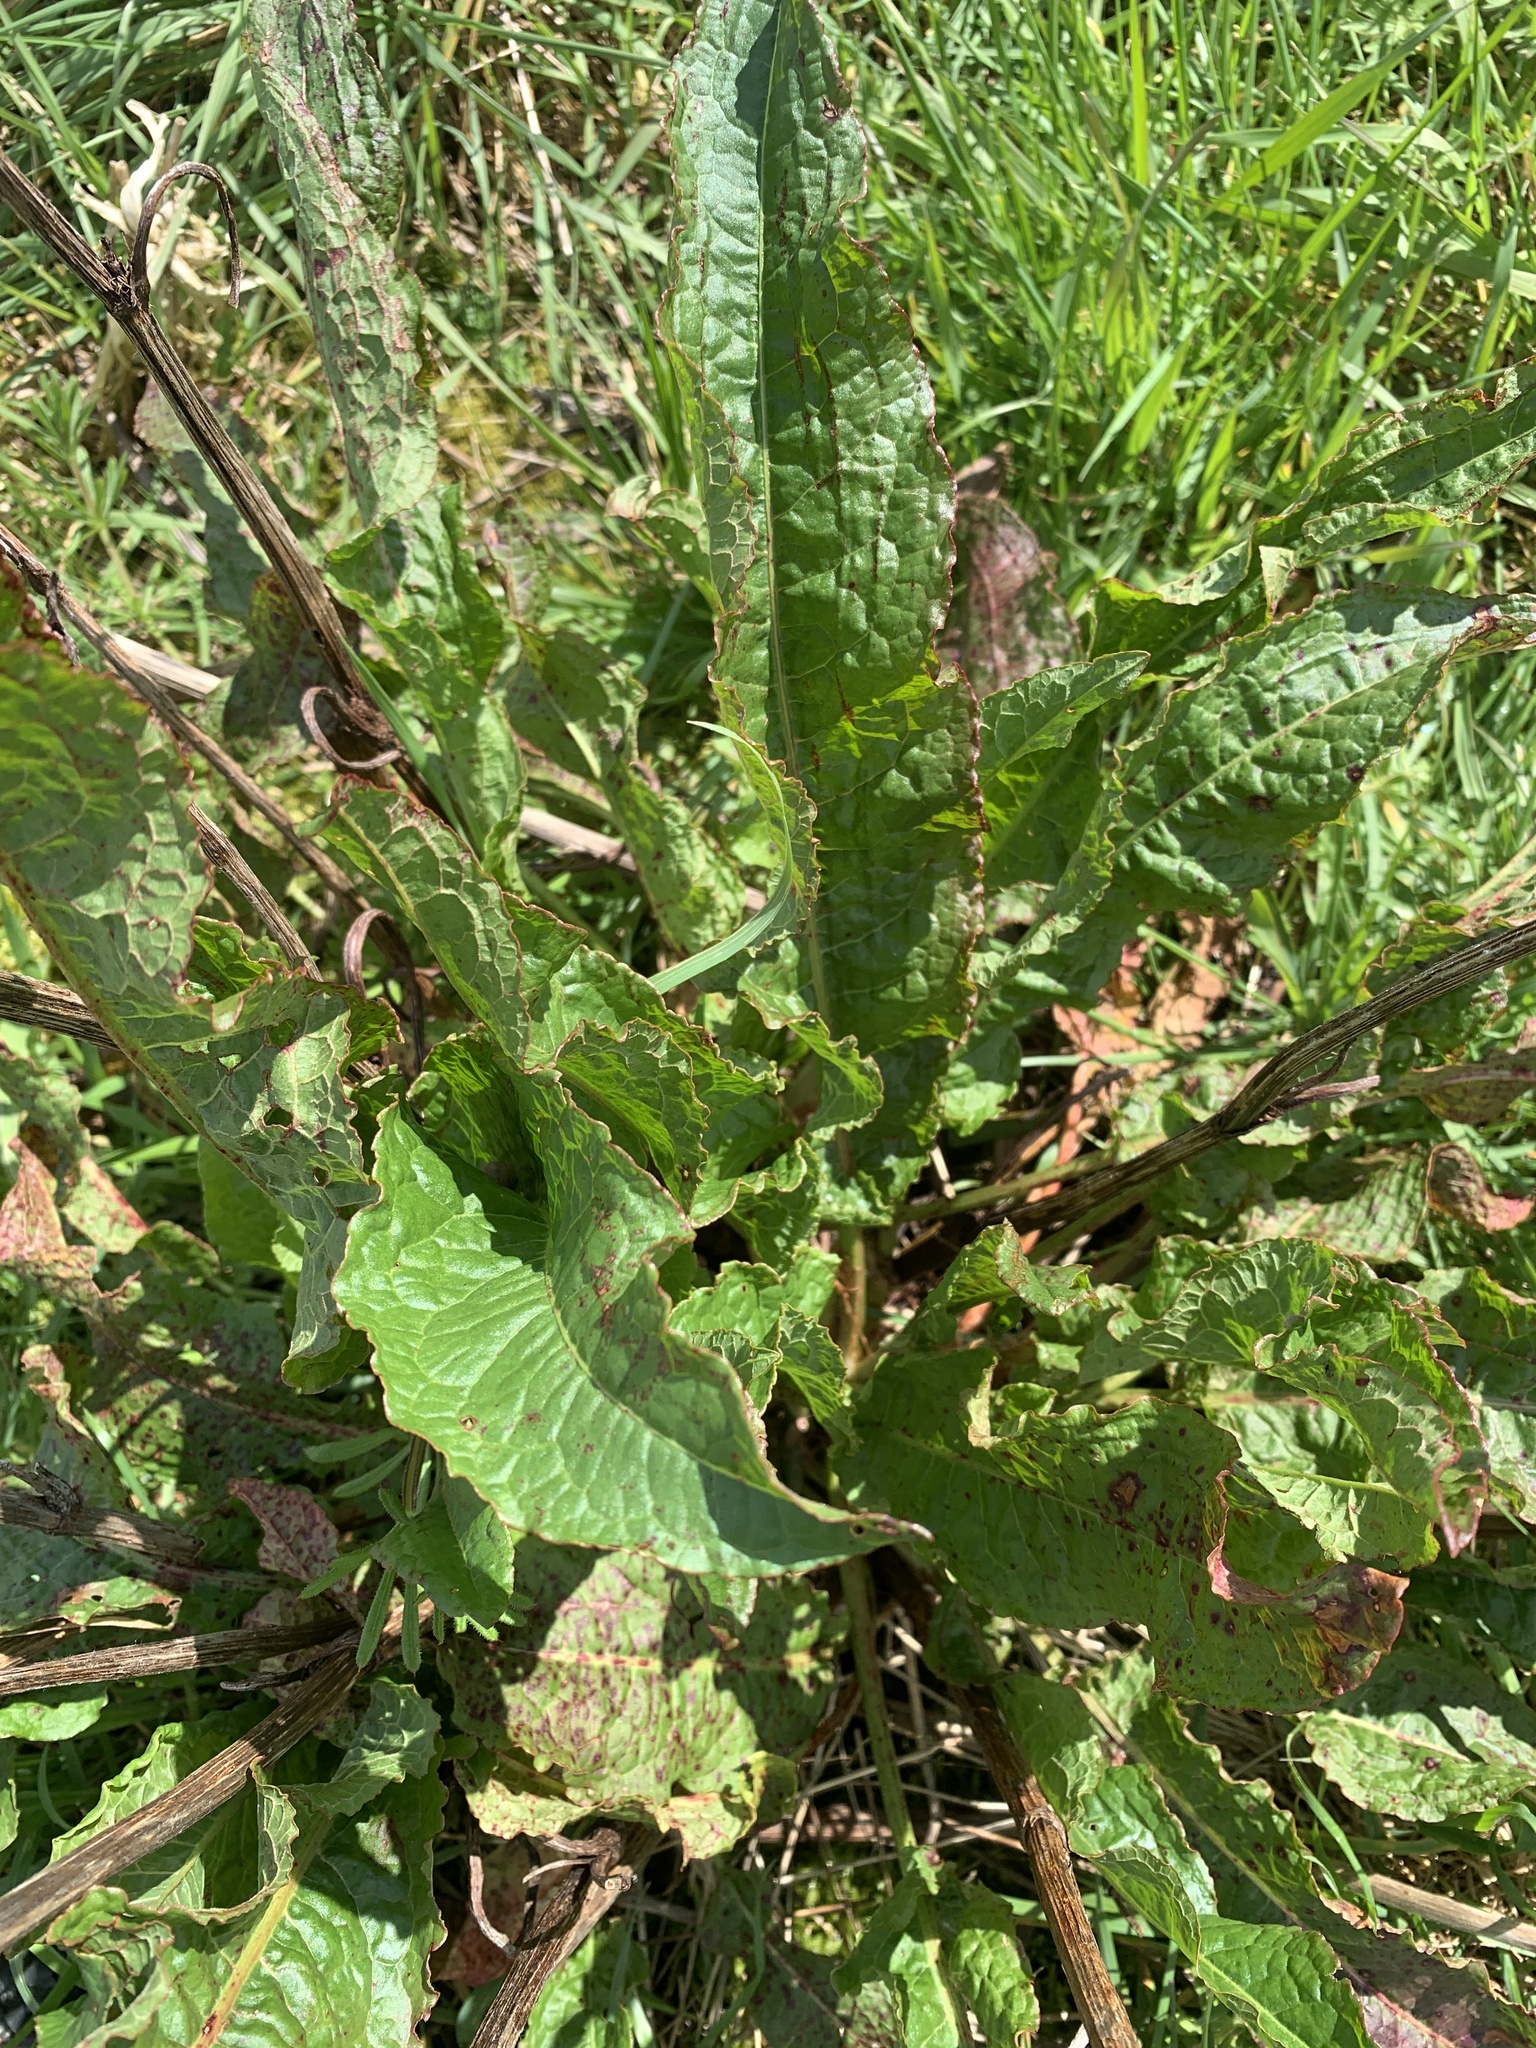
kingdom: Plantae
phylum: Tracheophyta
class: Magnoliopsida
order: Caryophyllales
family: Polygonaceae
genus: Rumex
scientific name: Rumex crispus
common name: Curled dock
